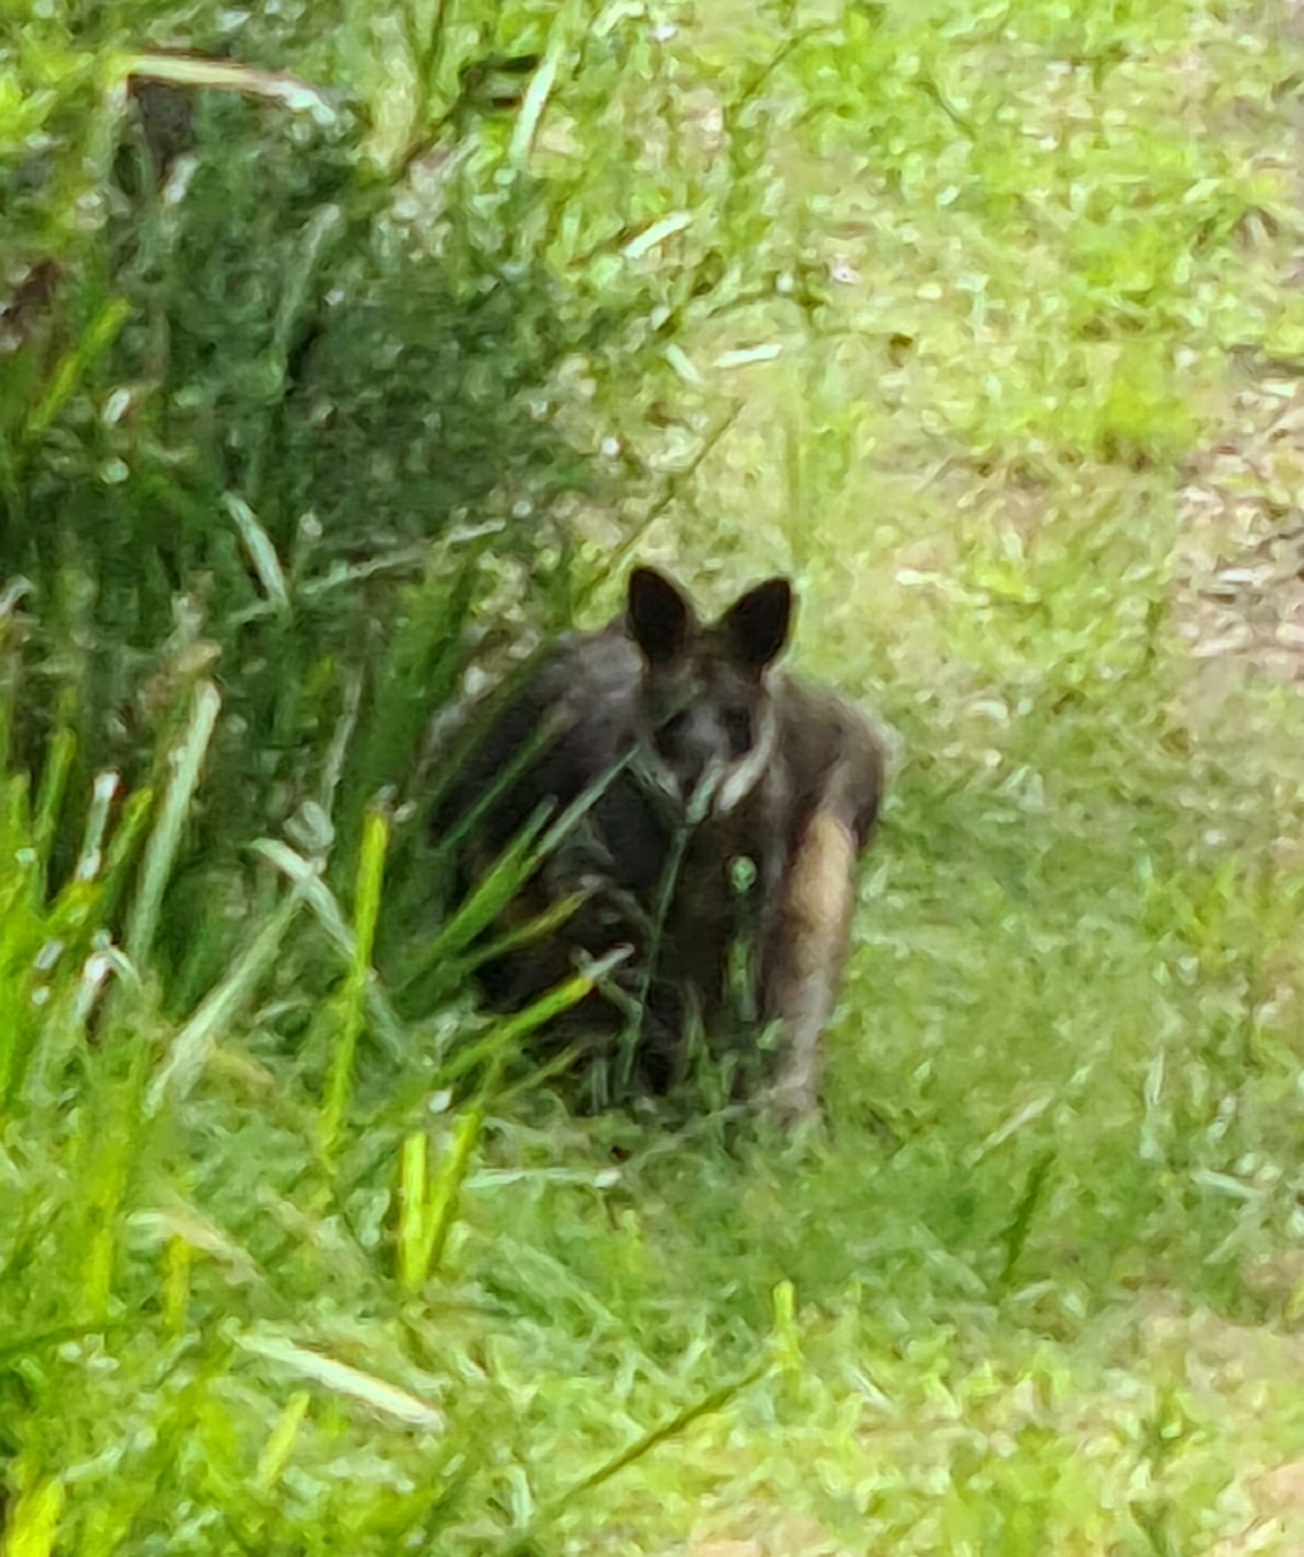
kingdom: Animalia
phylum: Chordata
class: Mammalia
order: Diprotodontia
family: Macropodidae
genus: Wallabia
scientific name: Wallabia bicolor
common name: Swamp wallaby
